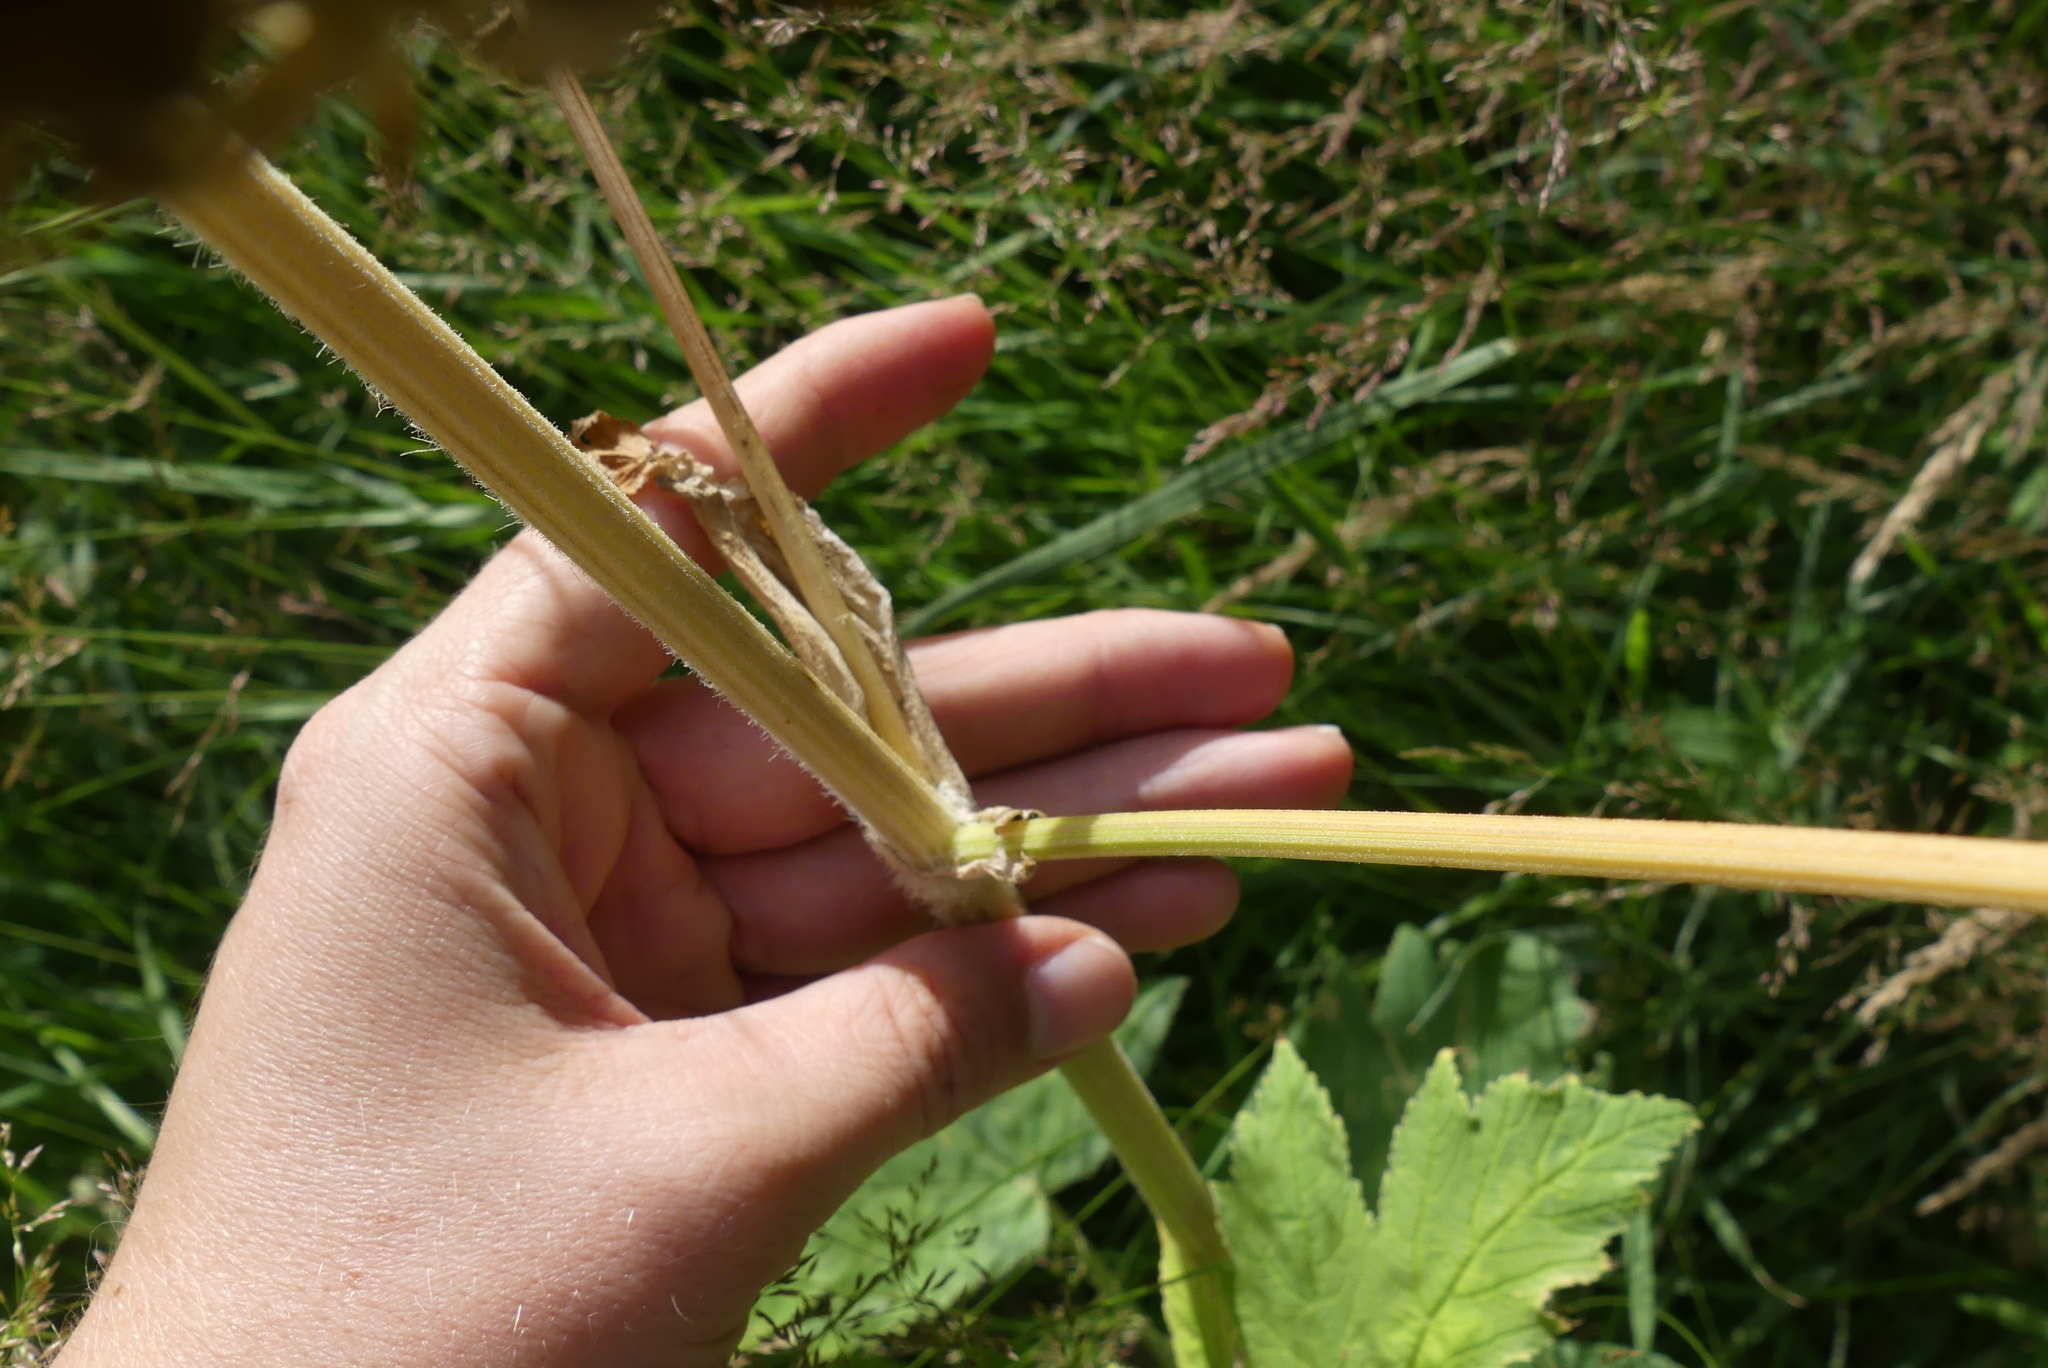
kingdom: Plantae
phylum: Tracheophyta
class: Magnoliopsida
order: Apiales
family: Apiaceae
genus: Heracleum
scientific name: Heracleum maximum
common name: American cow parsnip
